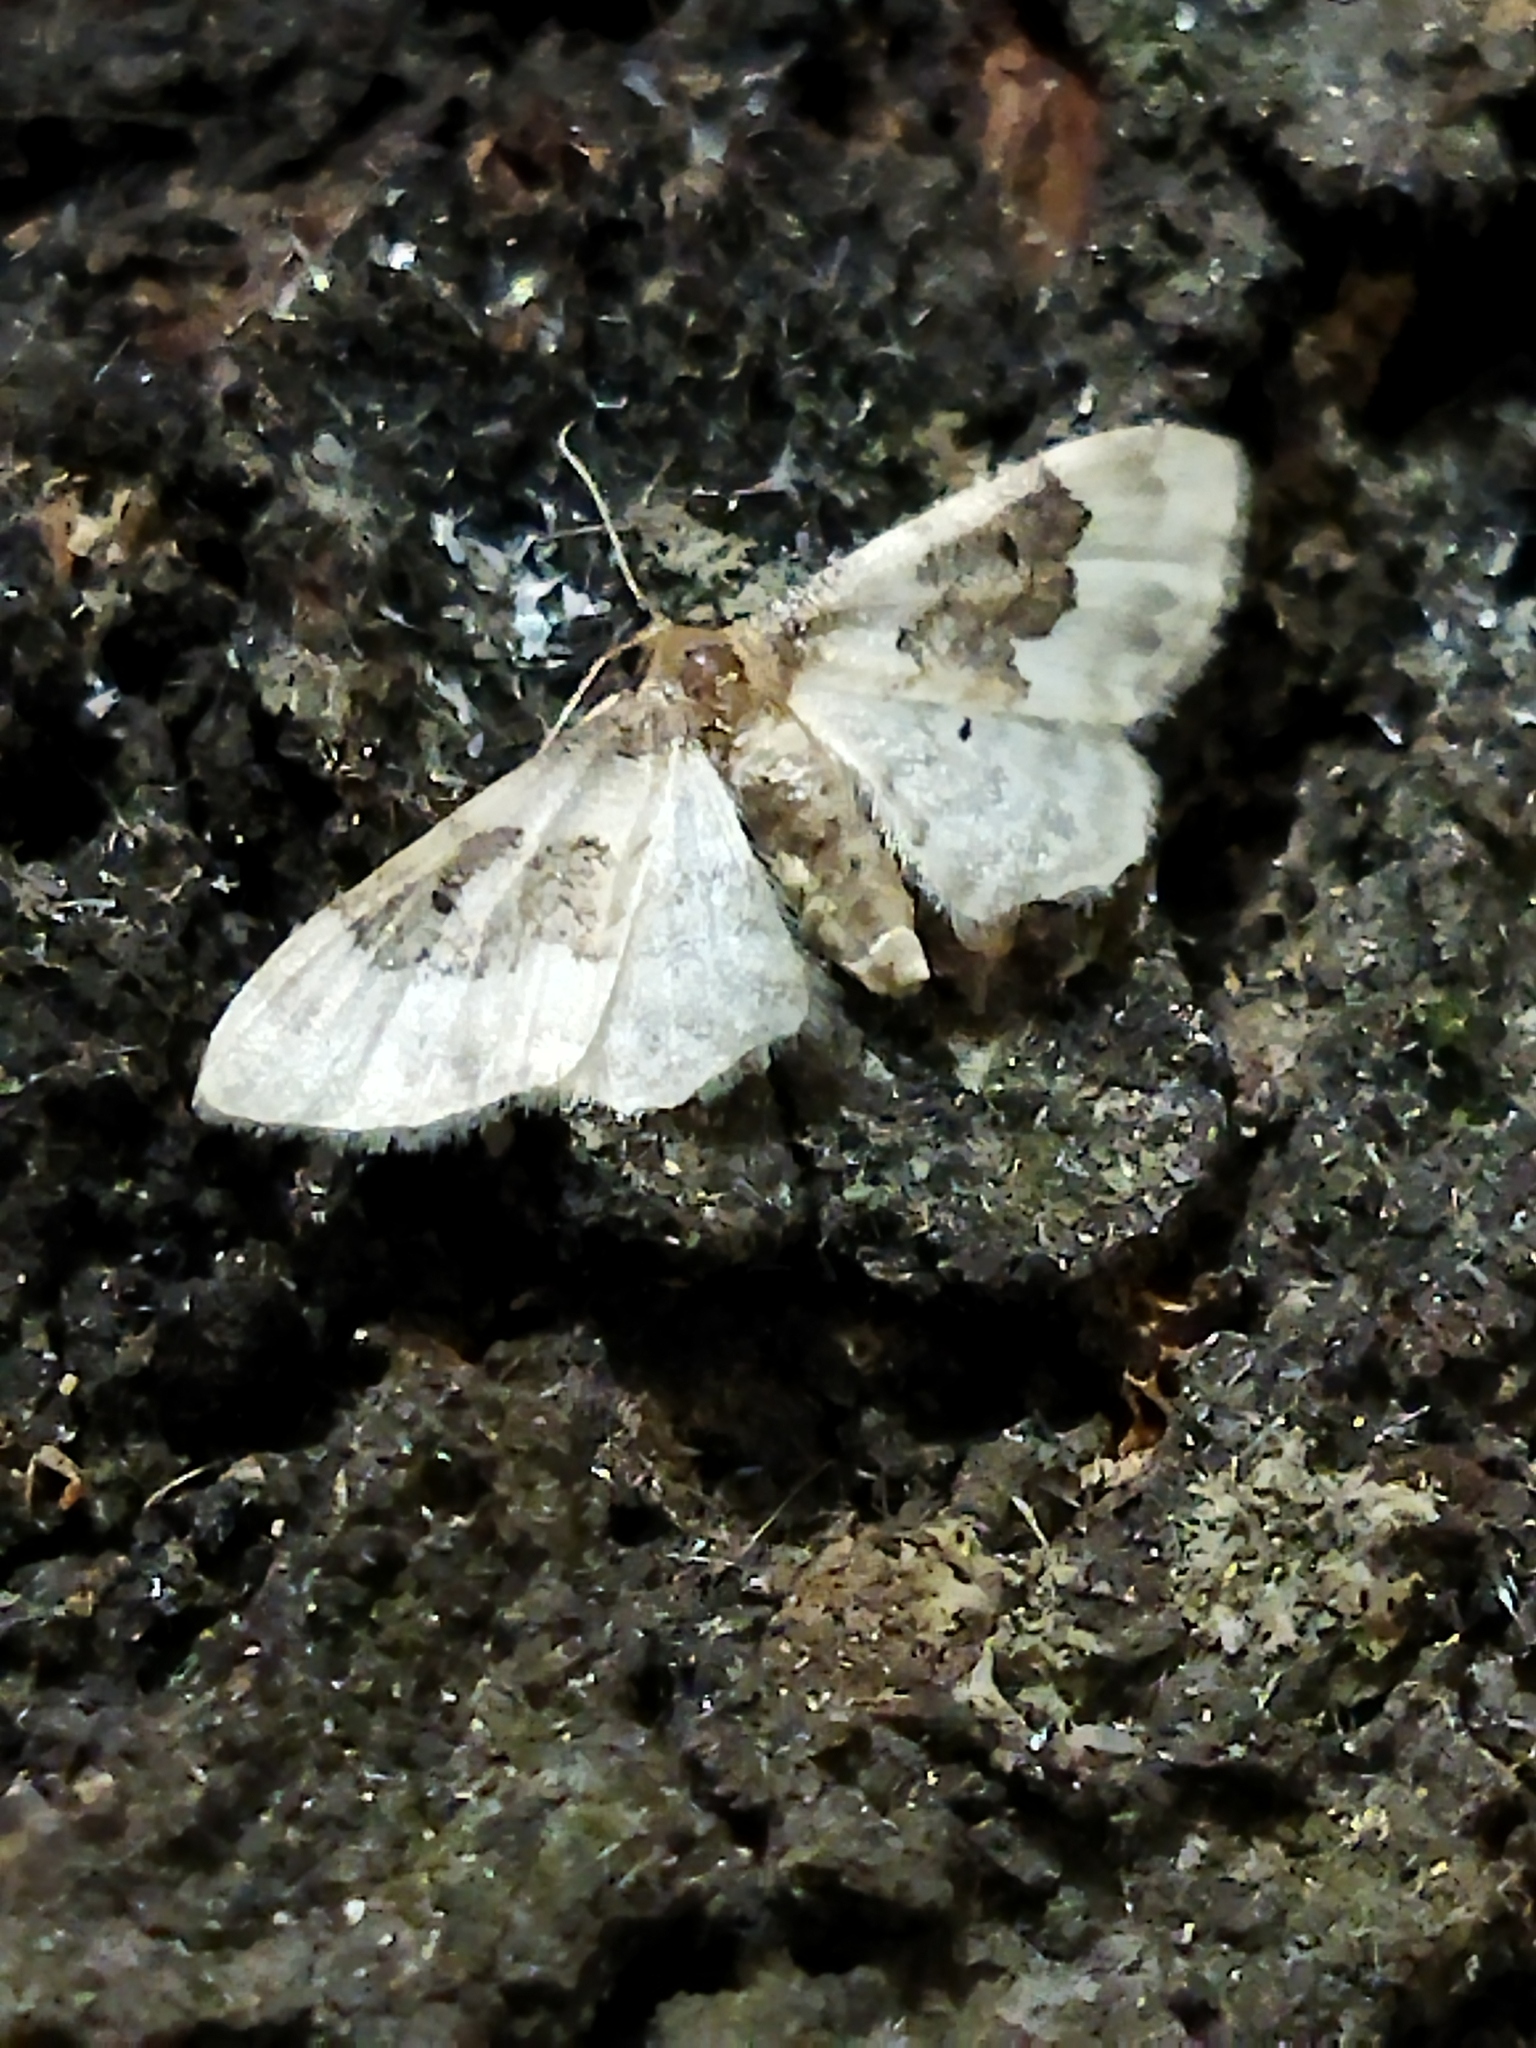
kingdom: Animalia
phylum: Arthropoda
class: Insecta
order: Lepidoptera
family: Geometridae
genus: Idaea
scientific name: Idaea rusticata
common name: Least carpet
